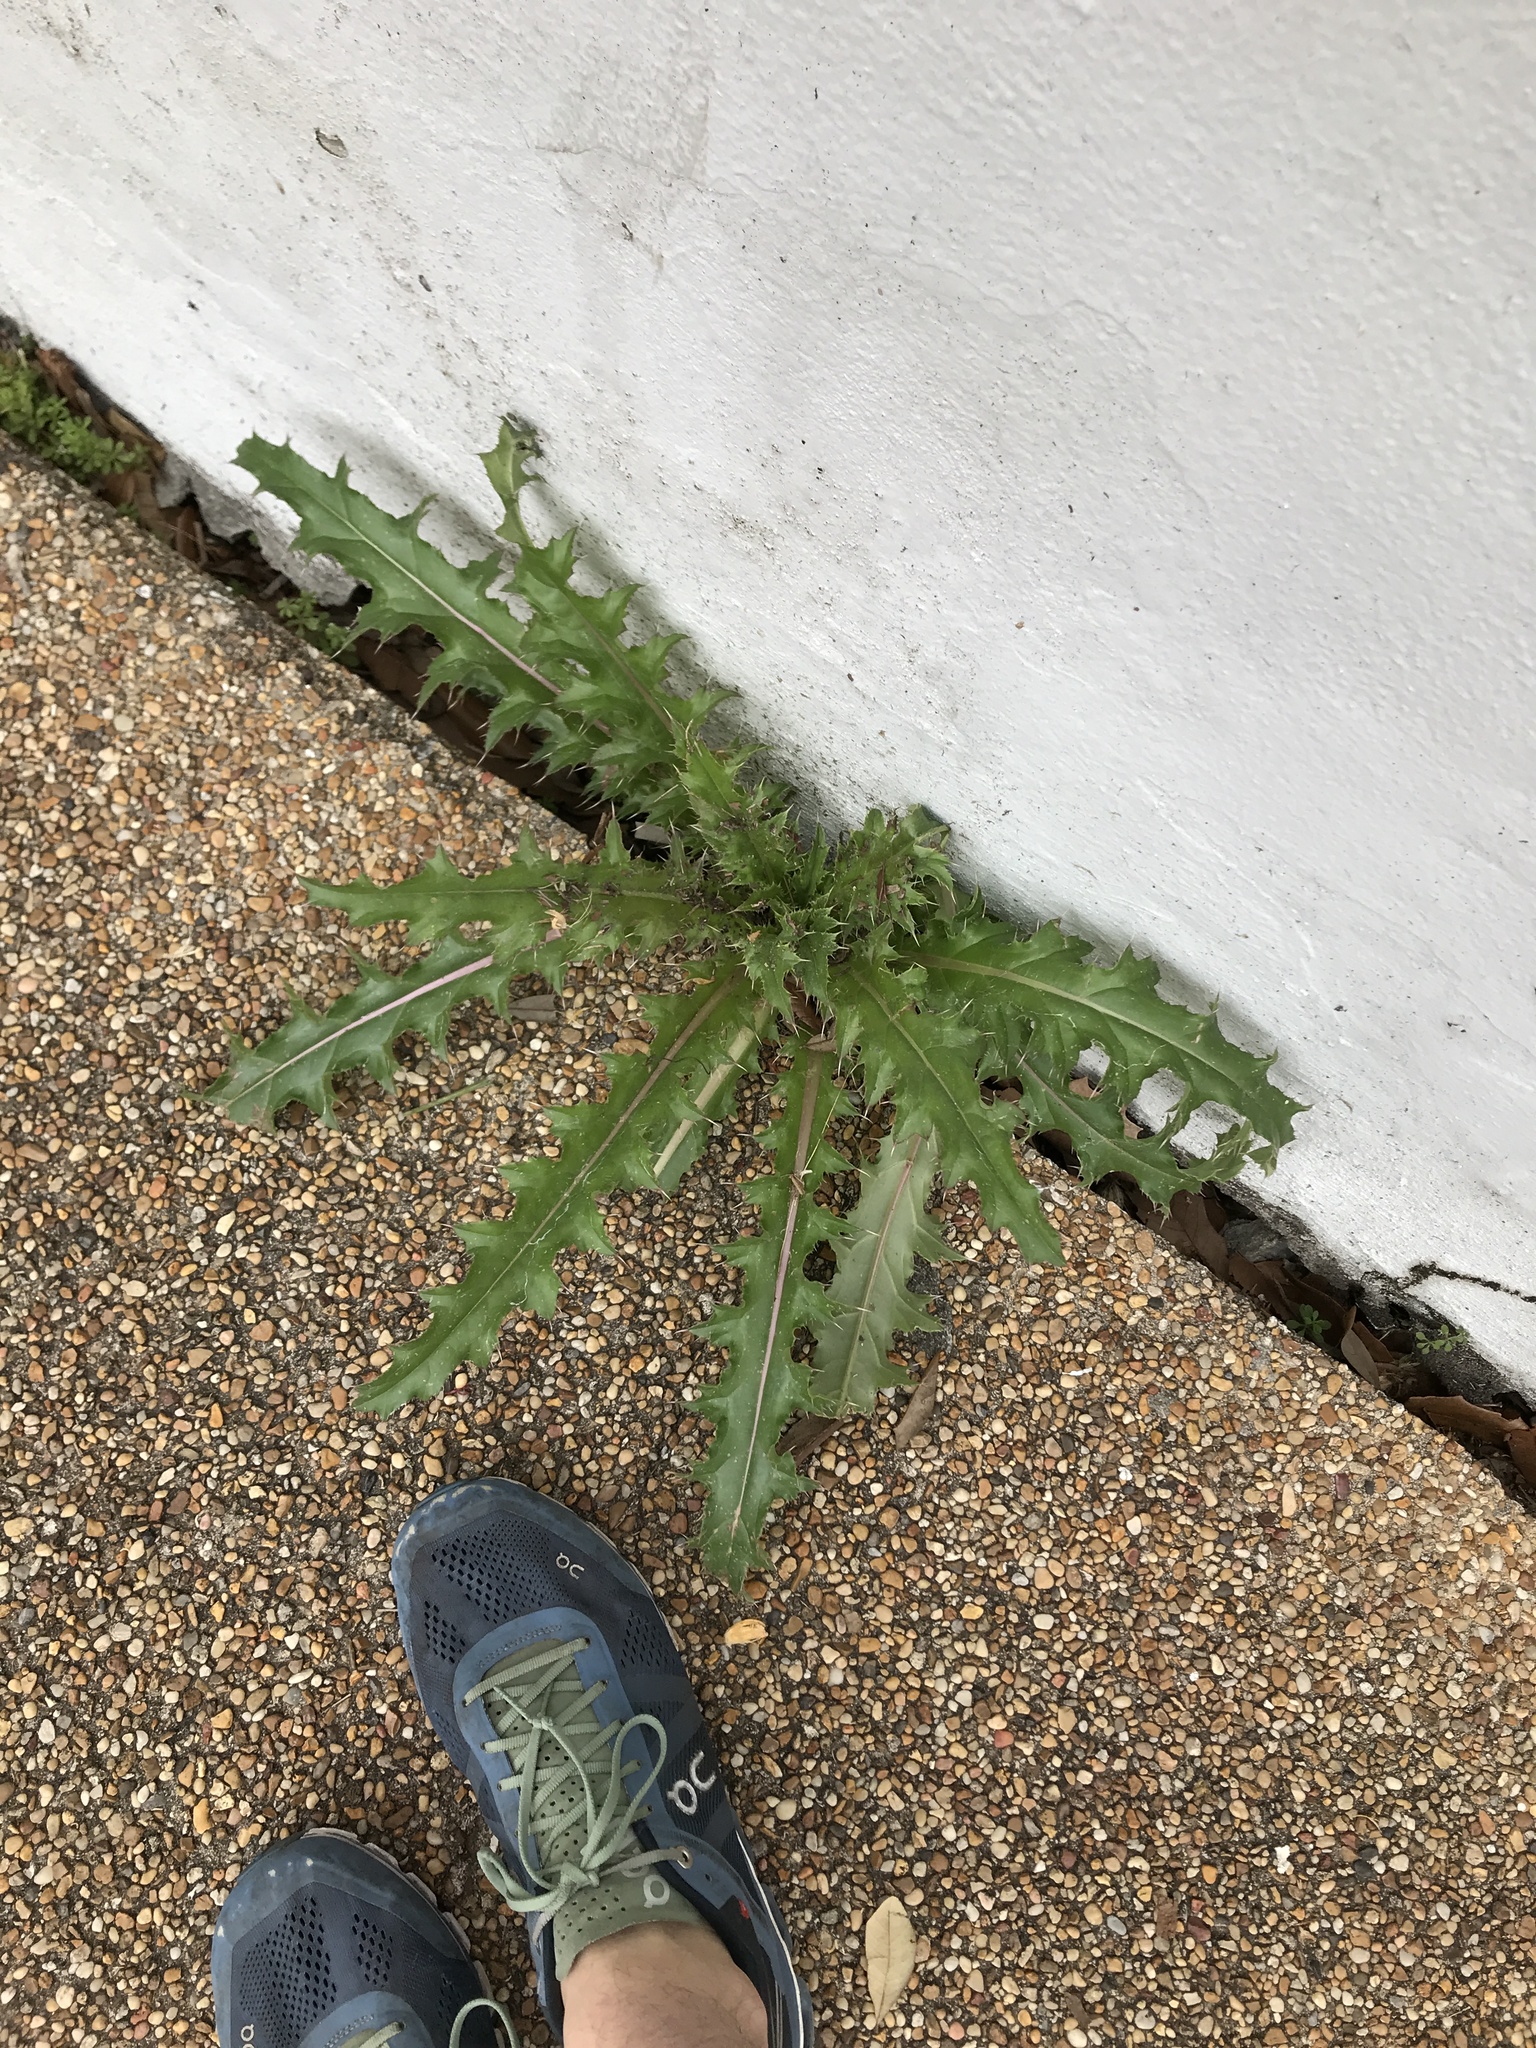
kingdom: Plantae
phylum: Tracheophyta
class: Magnoliopsida
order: Asterales
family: Asteraceae
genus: Cirsium
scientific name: Cirsium horridulum
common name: Bristly thistle
